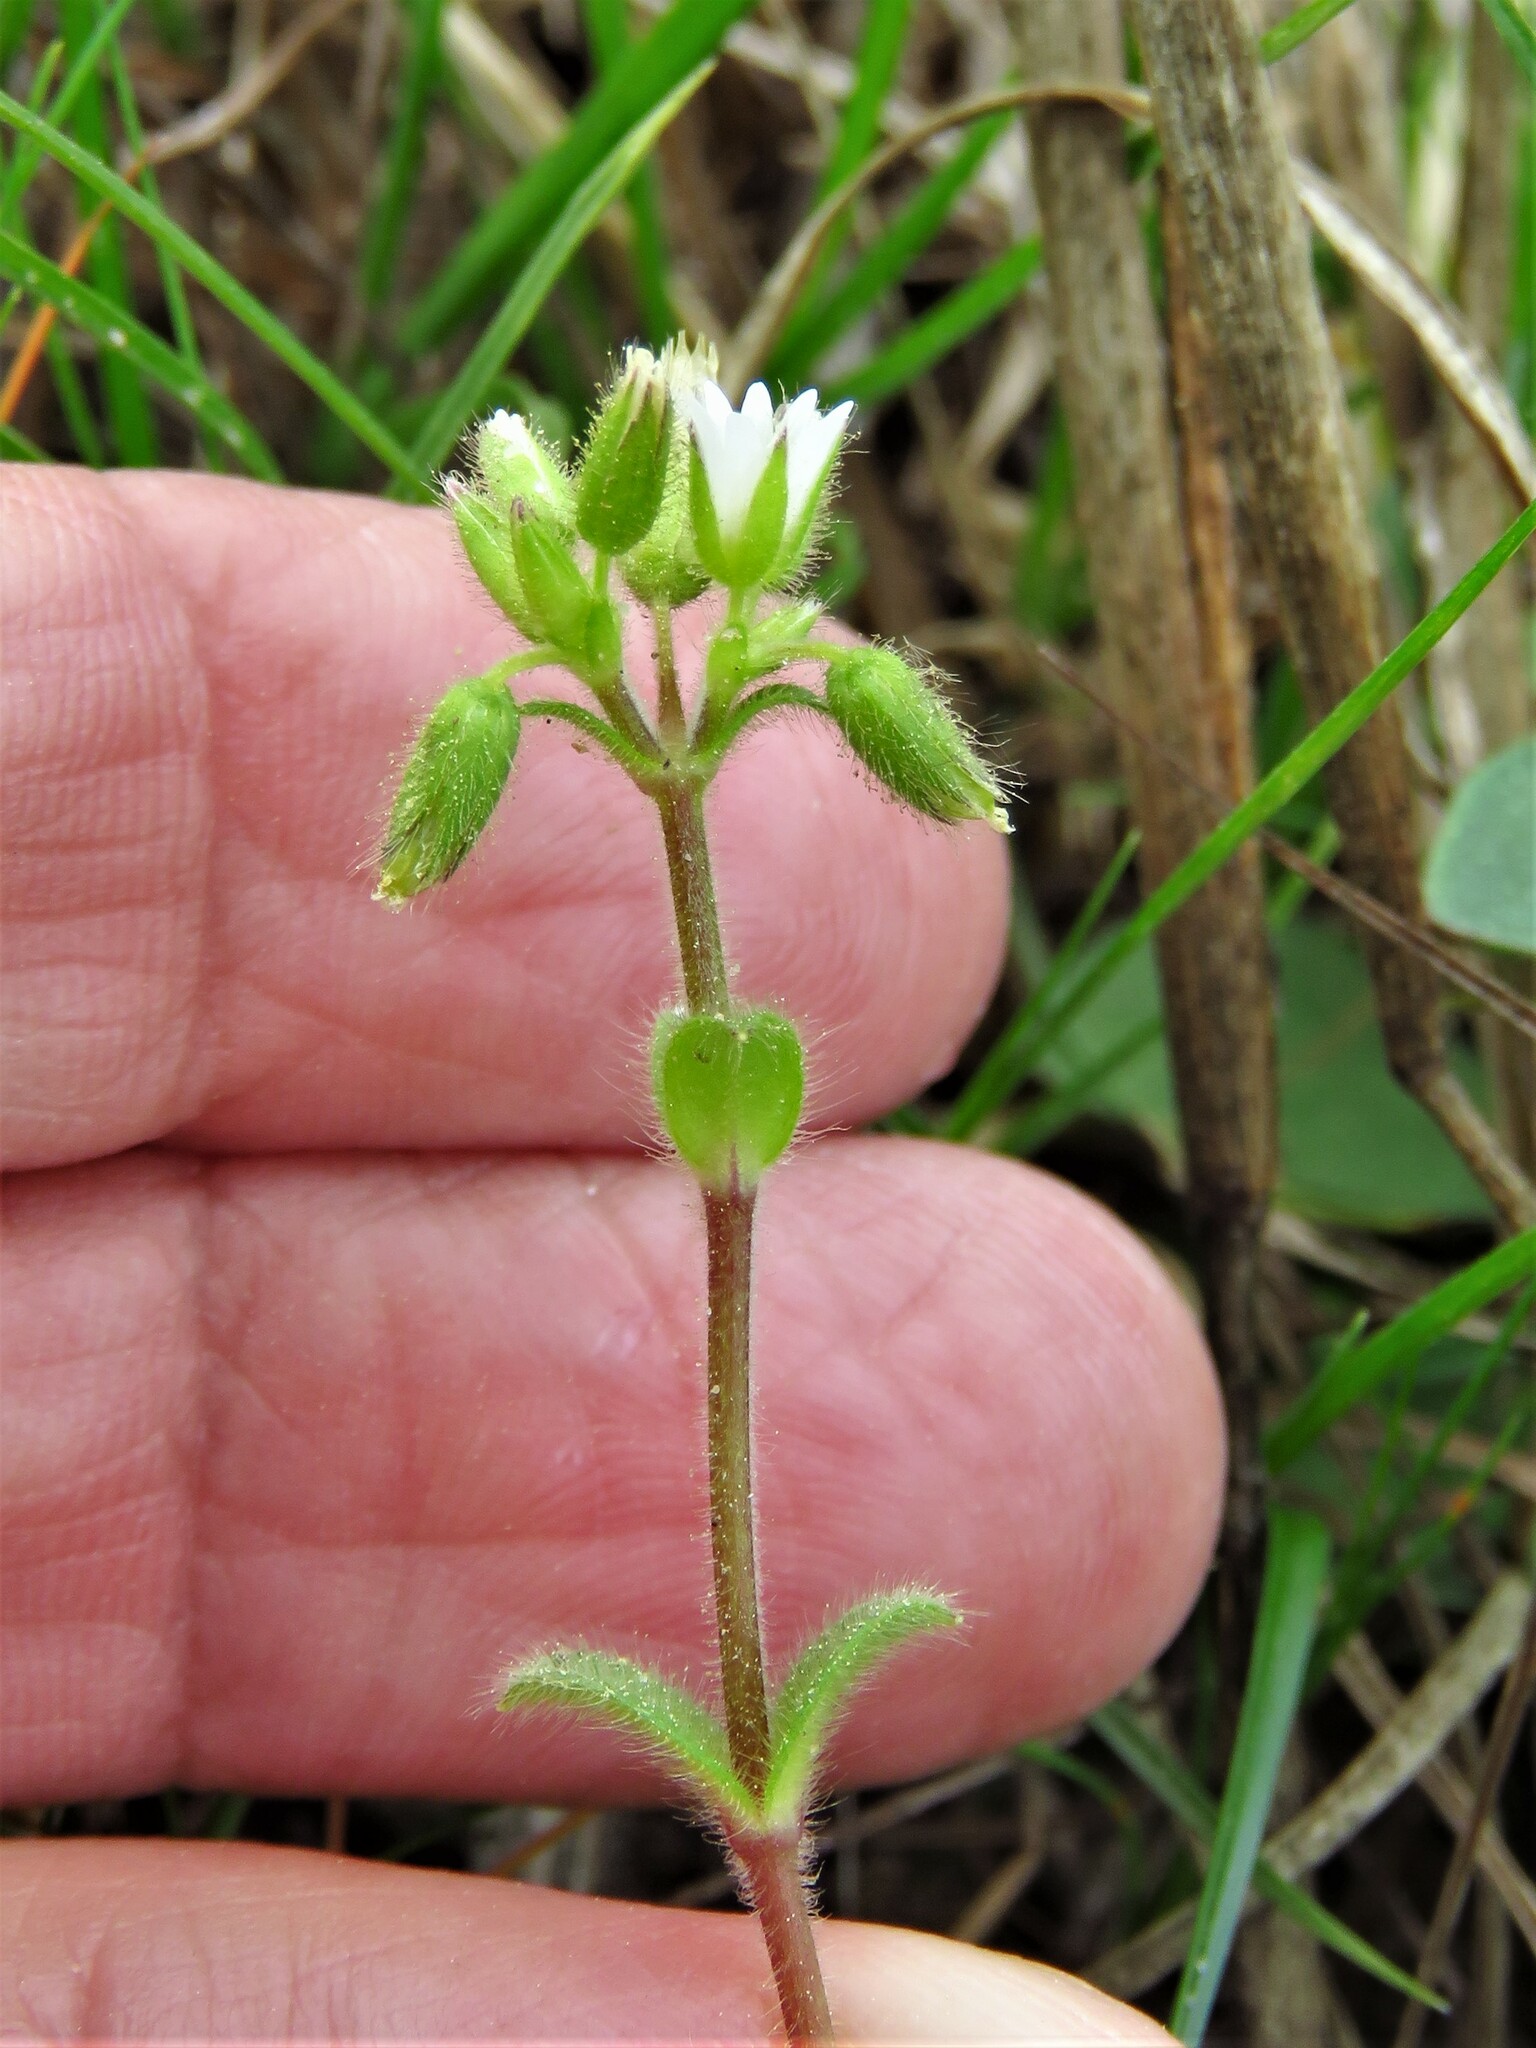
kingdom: Plantae
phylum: Tracheophyta
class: Magnoliopsida
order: Caryophyllales
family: Caryophyllaceae
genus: Cerastium
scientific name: Cerastium glomeratum
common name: Sticky chickweed
